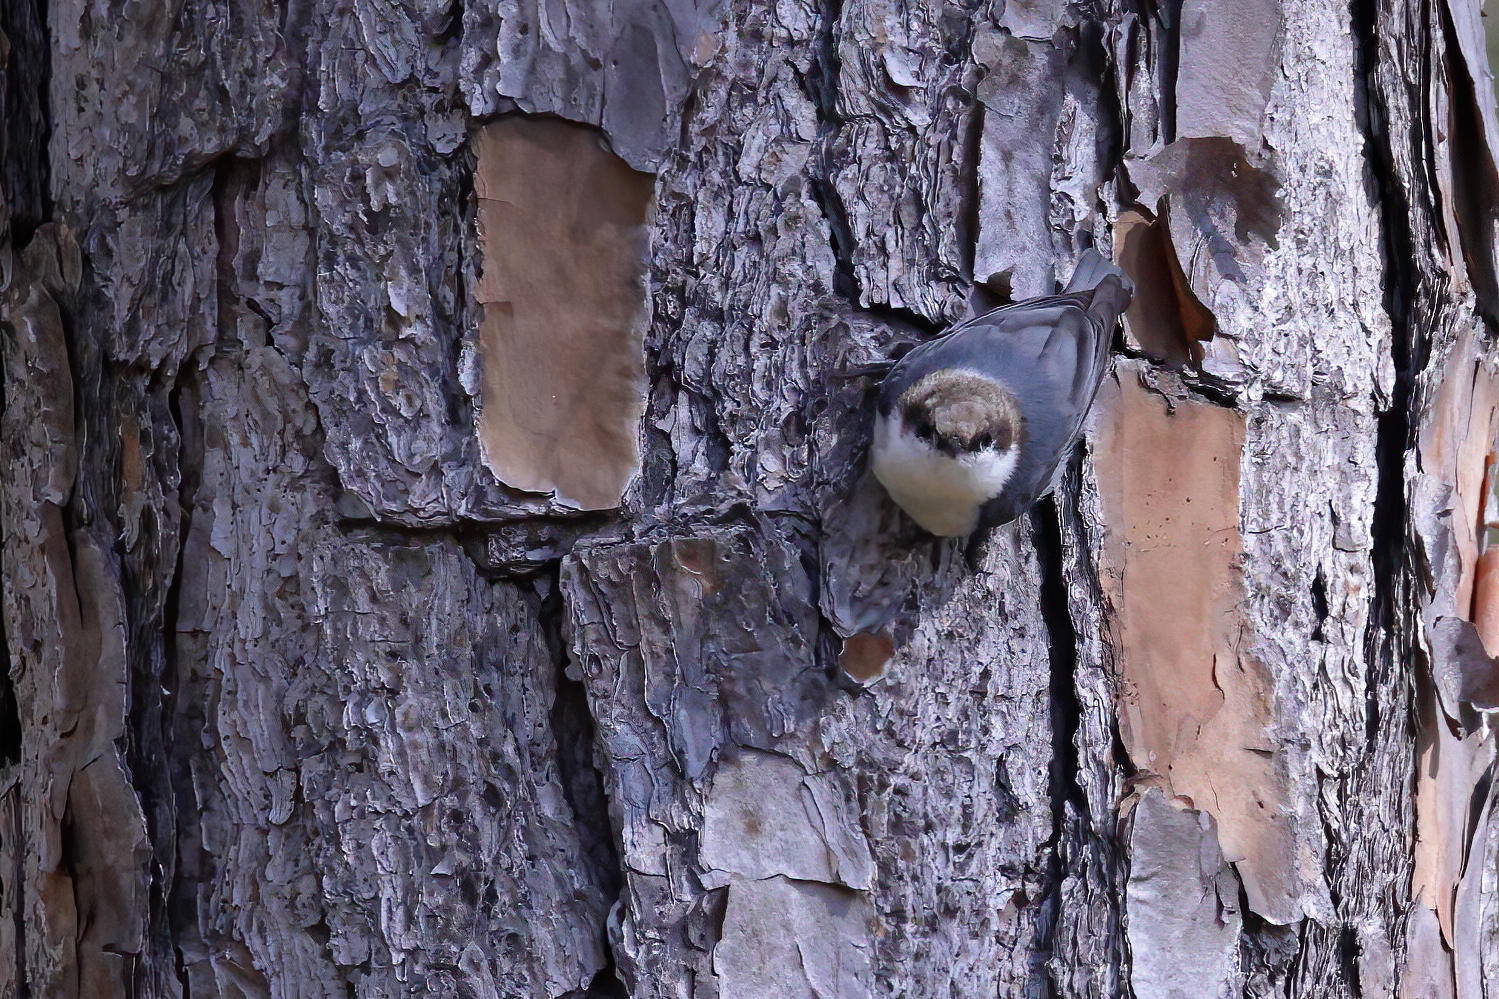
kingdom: Animalia
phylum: Chordata
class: Aves
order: Passeriformes
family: Sittidae
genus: Sitta
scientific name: Sitta pusilla
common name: Brown-headed nuthatch
